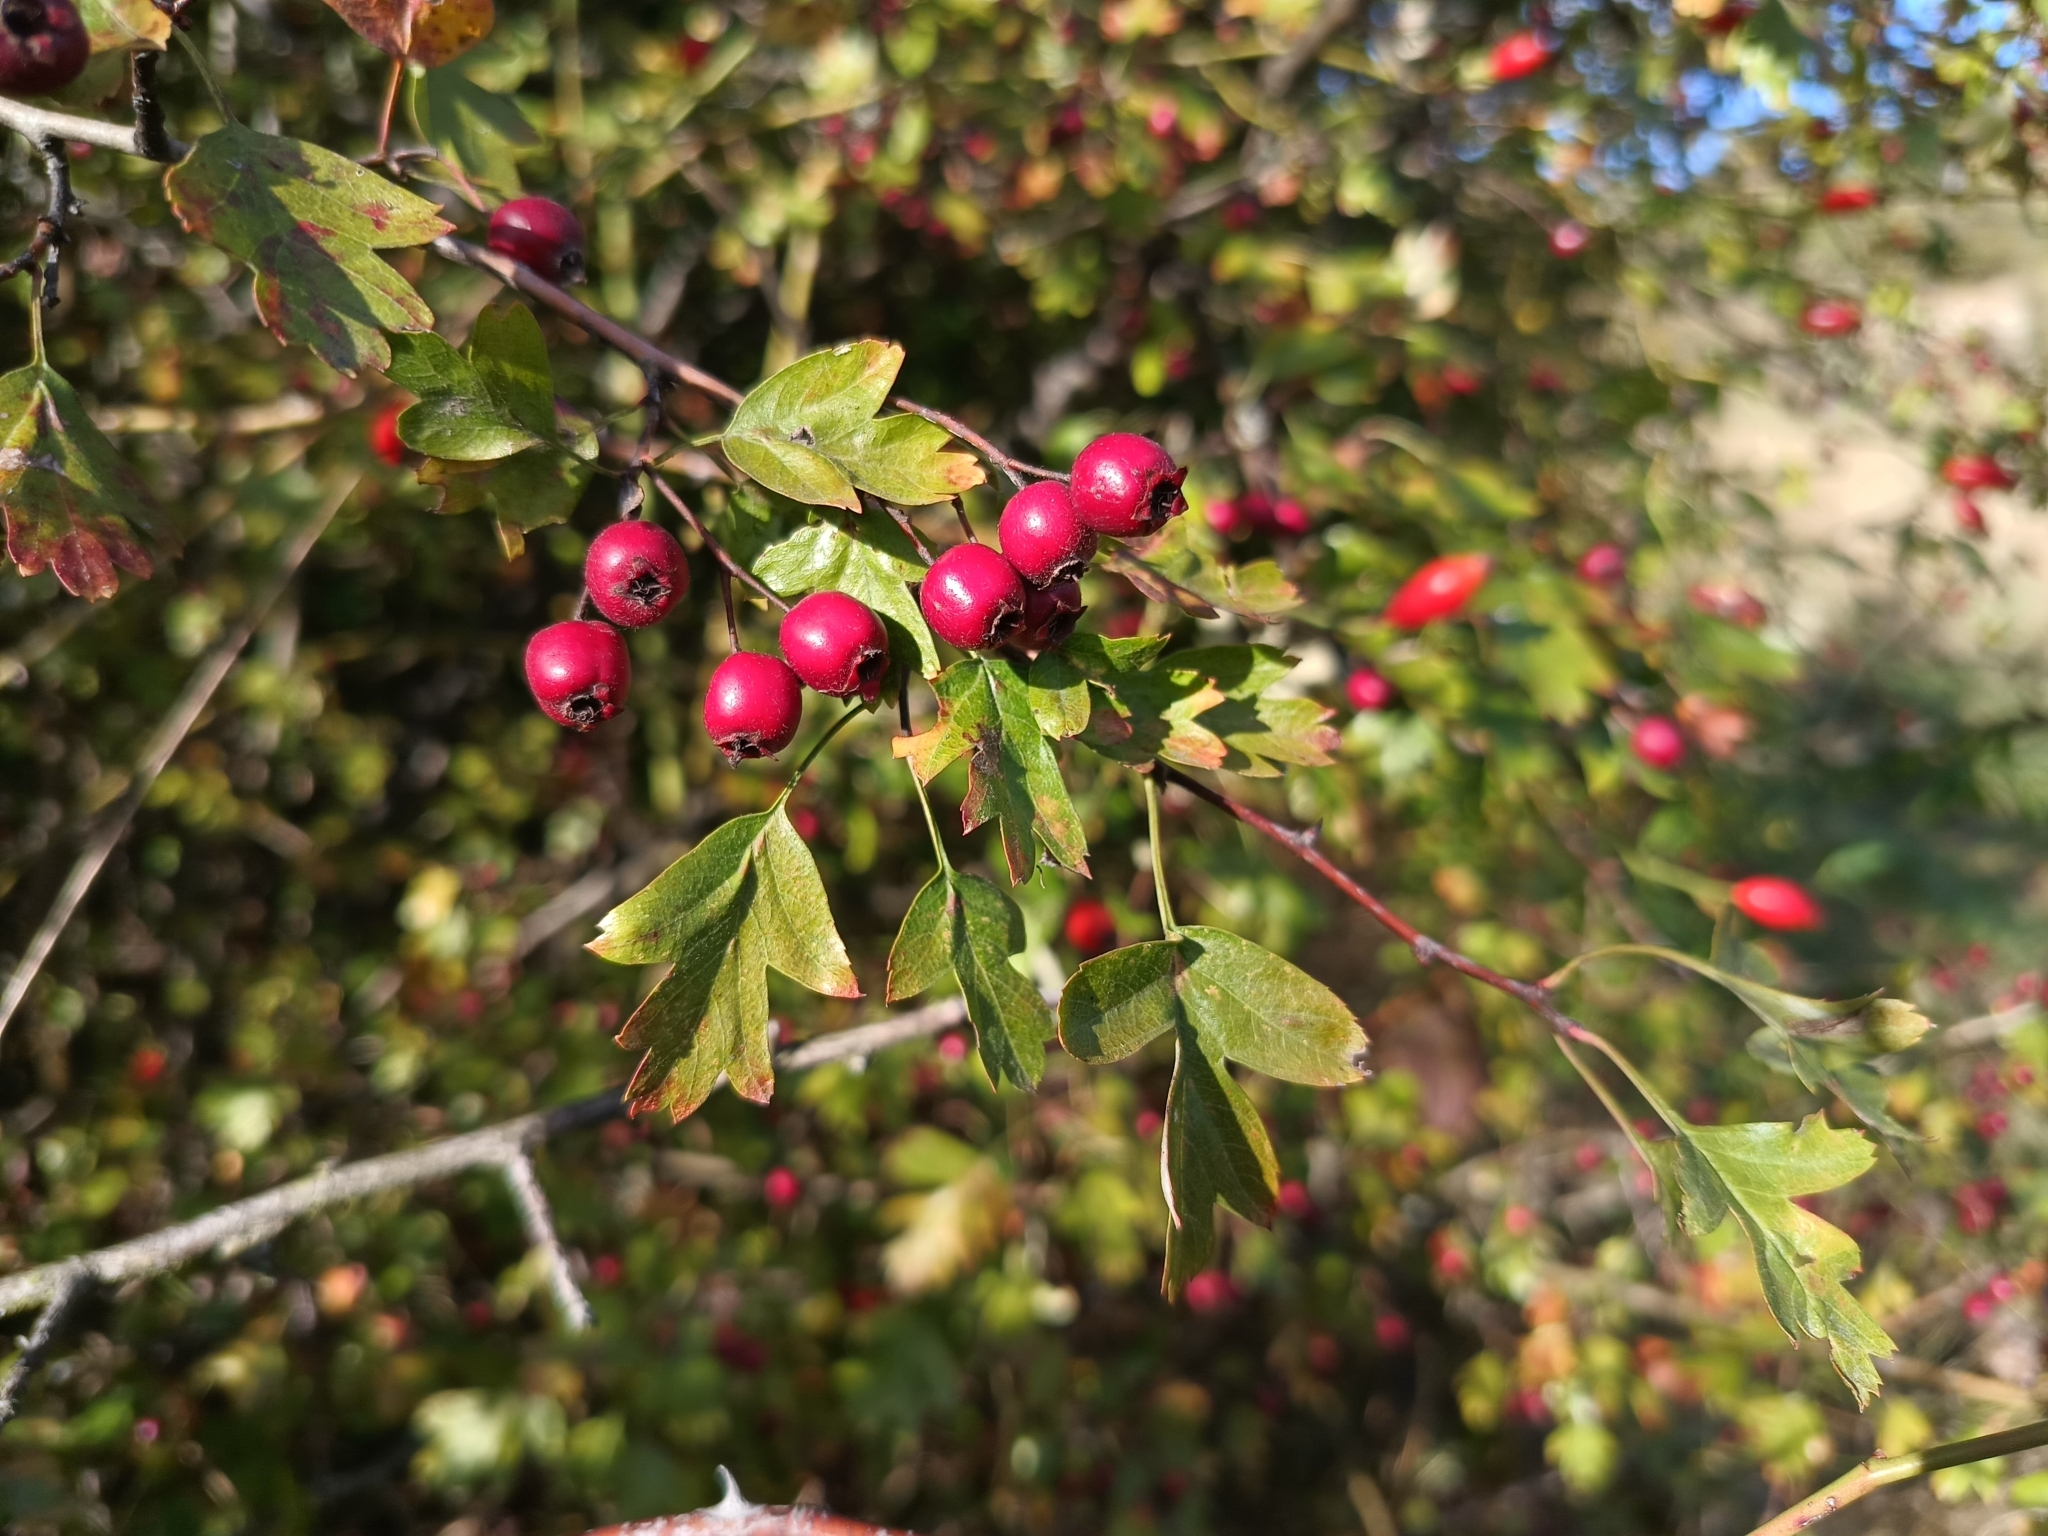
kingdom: Plantae
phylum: Tracheophyta
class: Magnoliopsida
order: Rosales
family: Rosaceae
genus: Crataegus
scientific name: Crataegus monogyna
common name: Hawthorn
